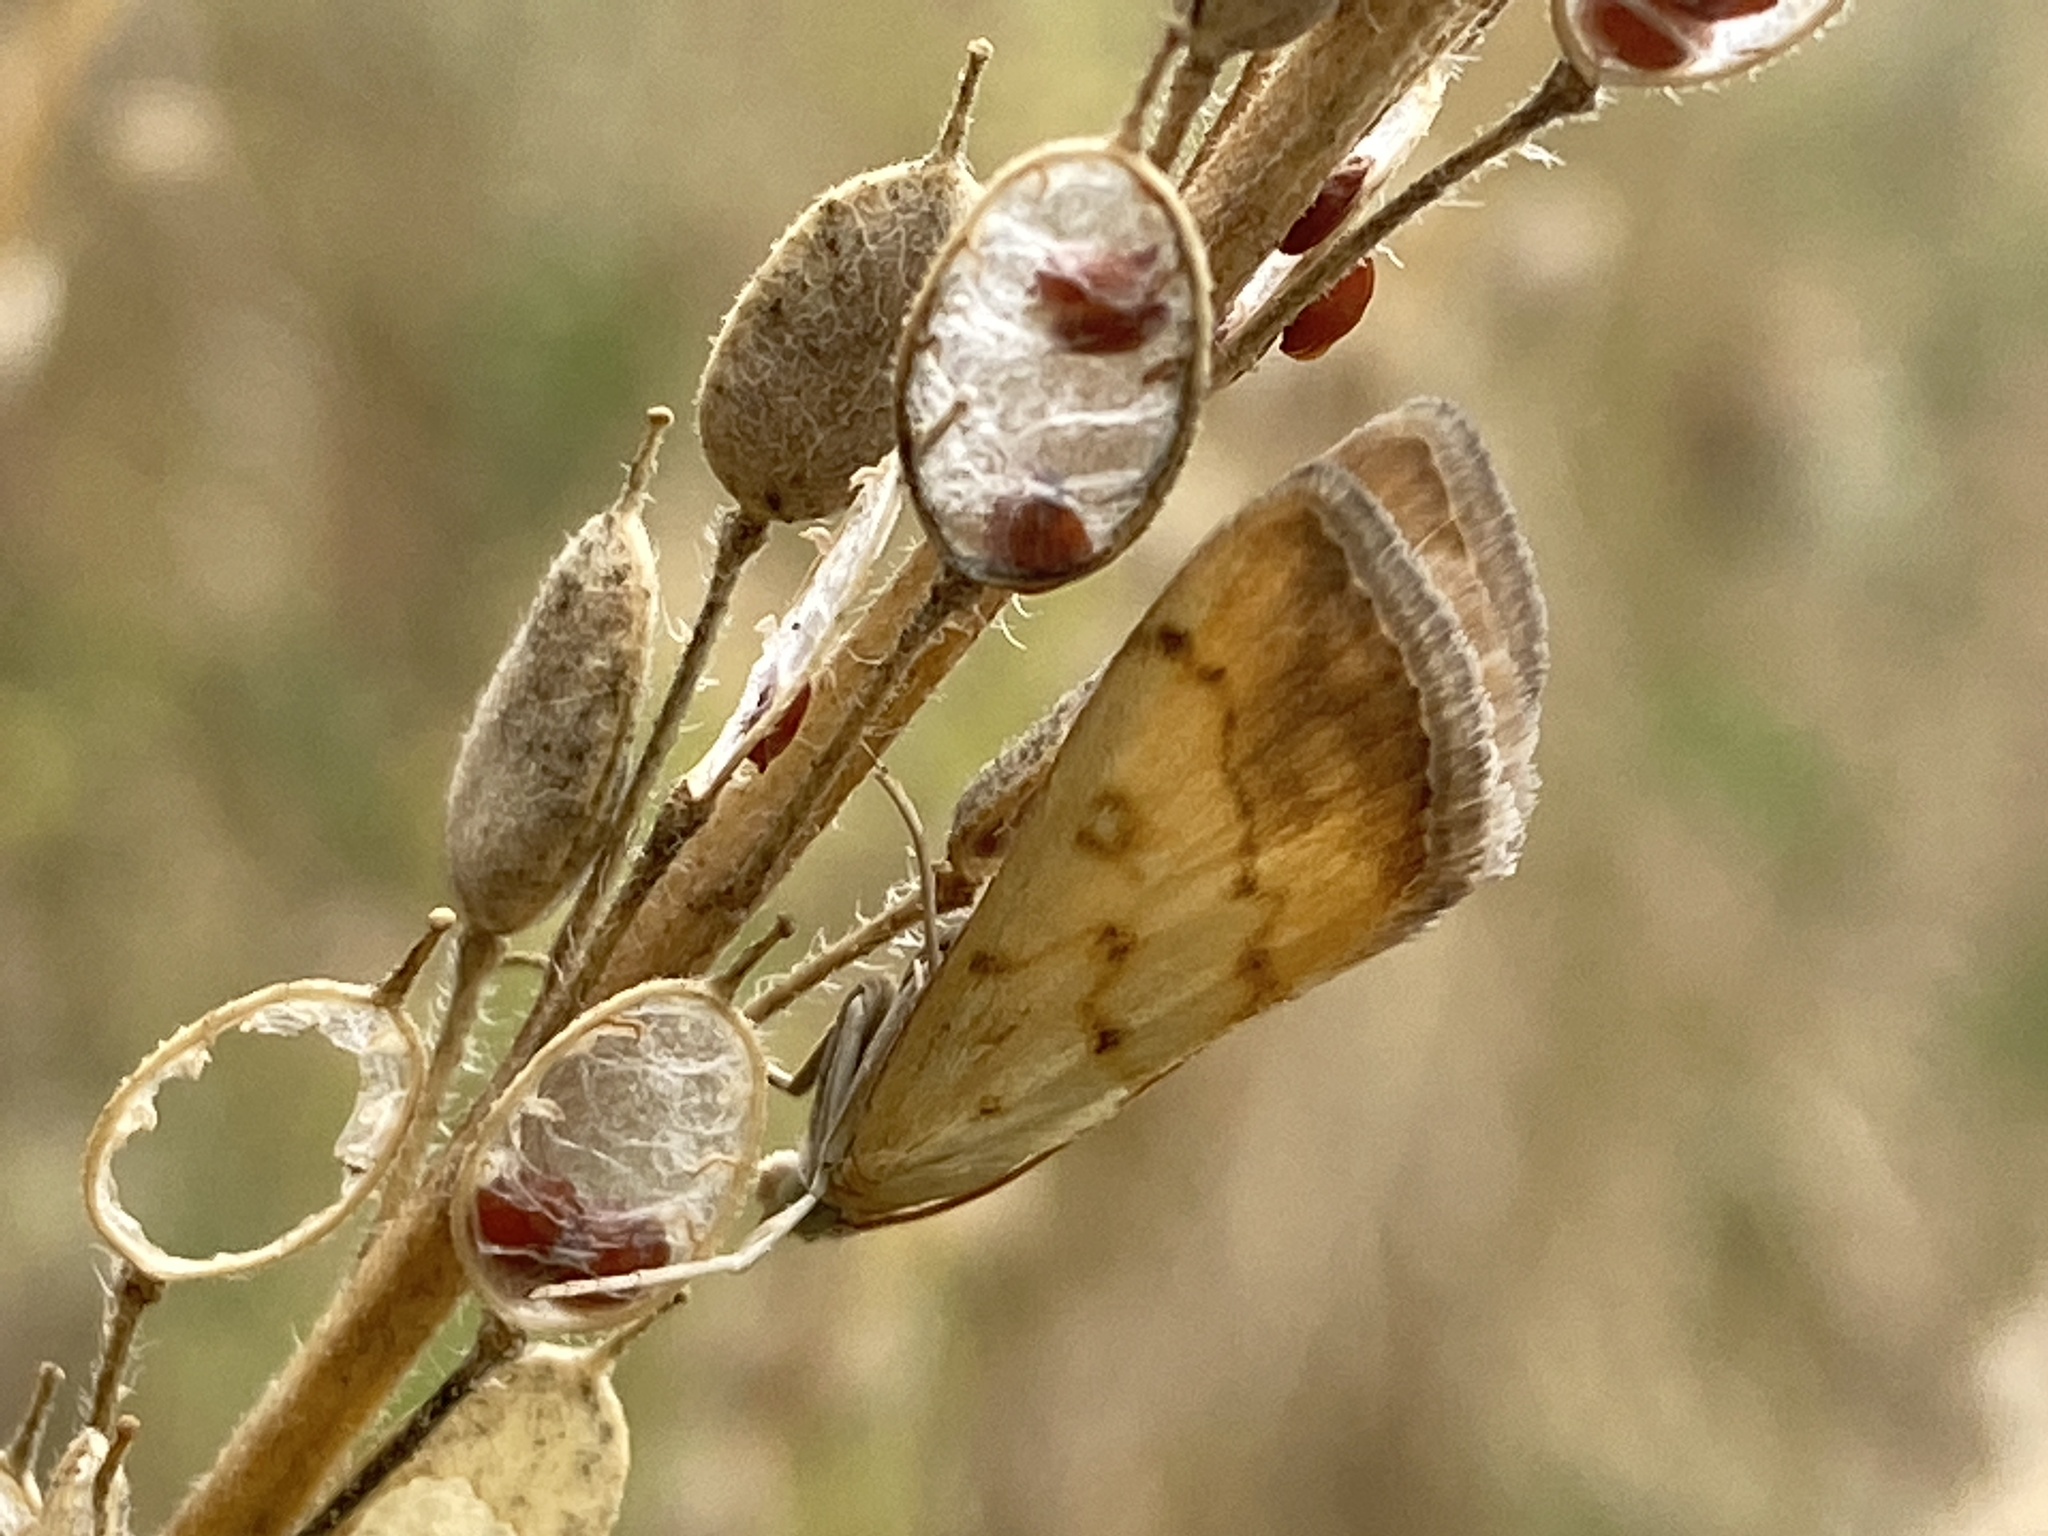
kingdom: Animalia
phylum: Arthropoda
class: Insecta
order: Lepidoptera
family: Crambidae
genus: Evergestis
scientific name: Evergestis extimalis
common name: Marbled yellow pearl
